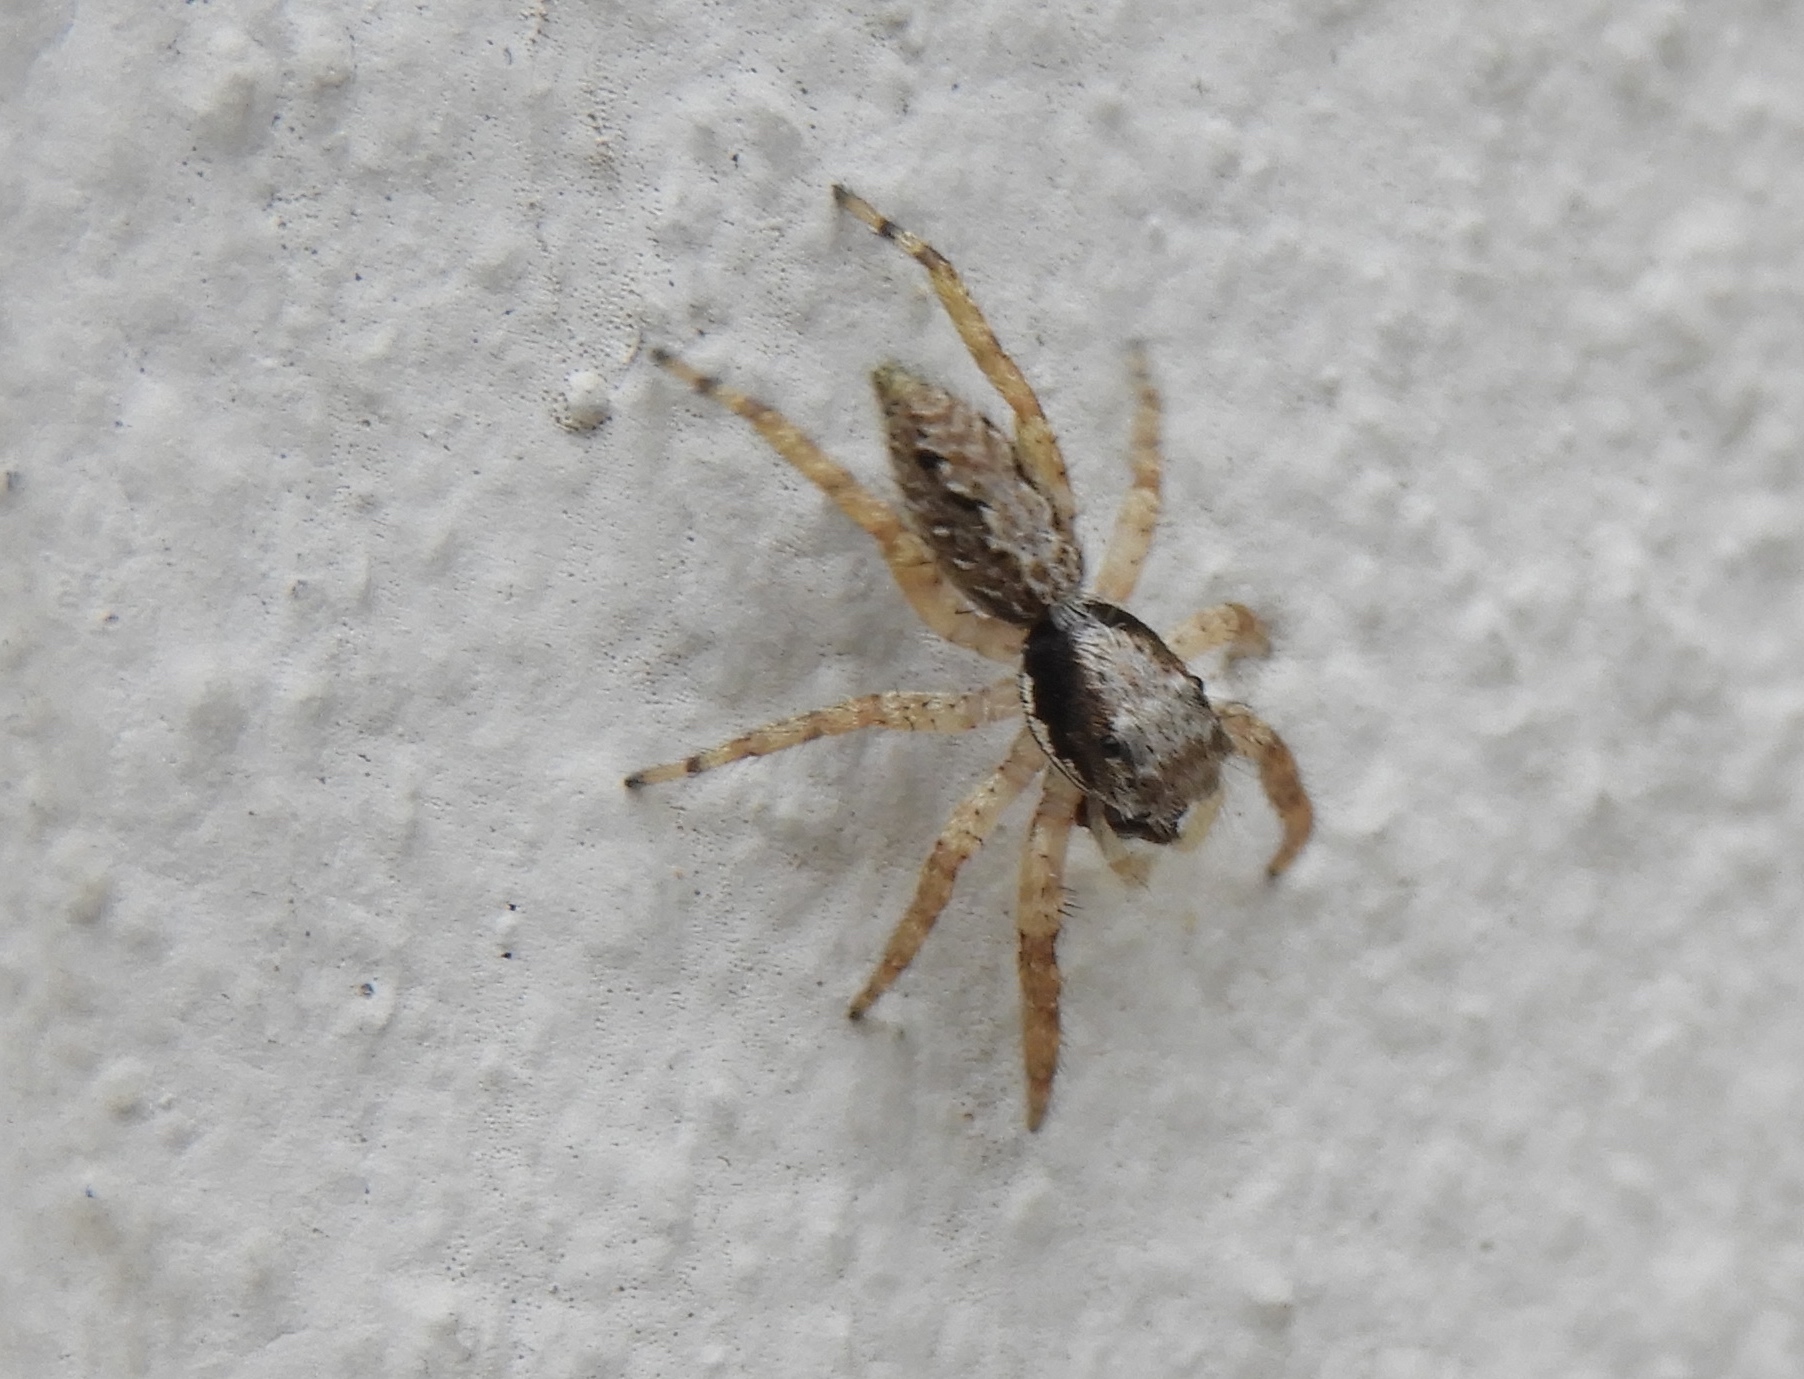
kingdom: Animalia
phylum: Arthropoda
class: Arachnida
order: Araneae
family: Salticidae
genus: Balmaceda
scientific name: Balmaceda
